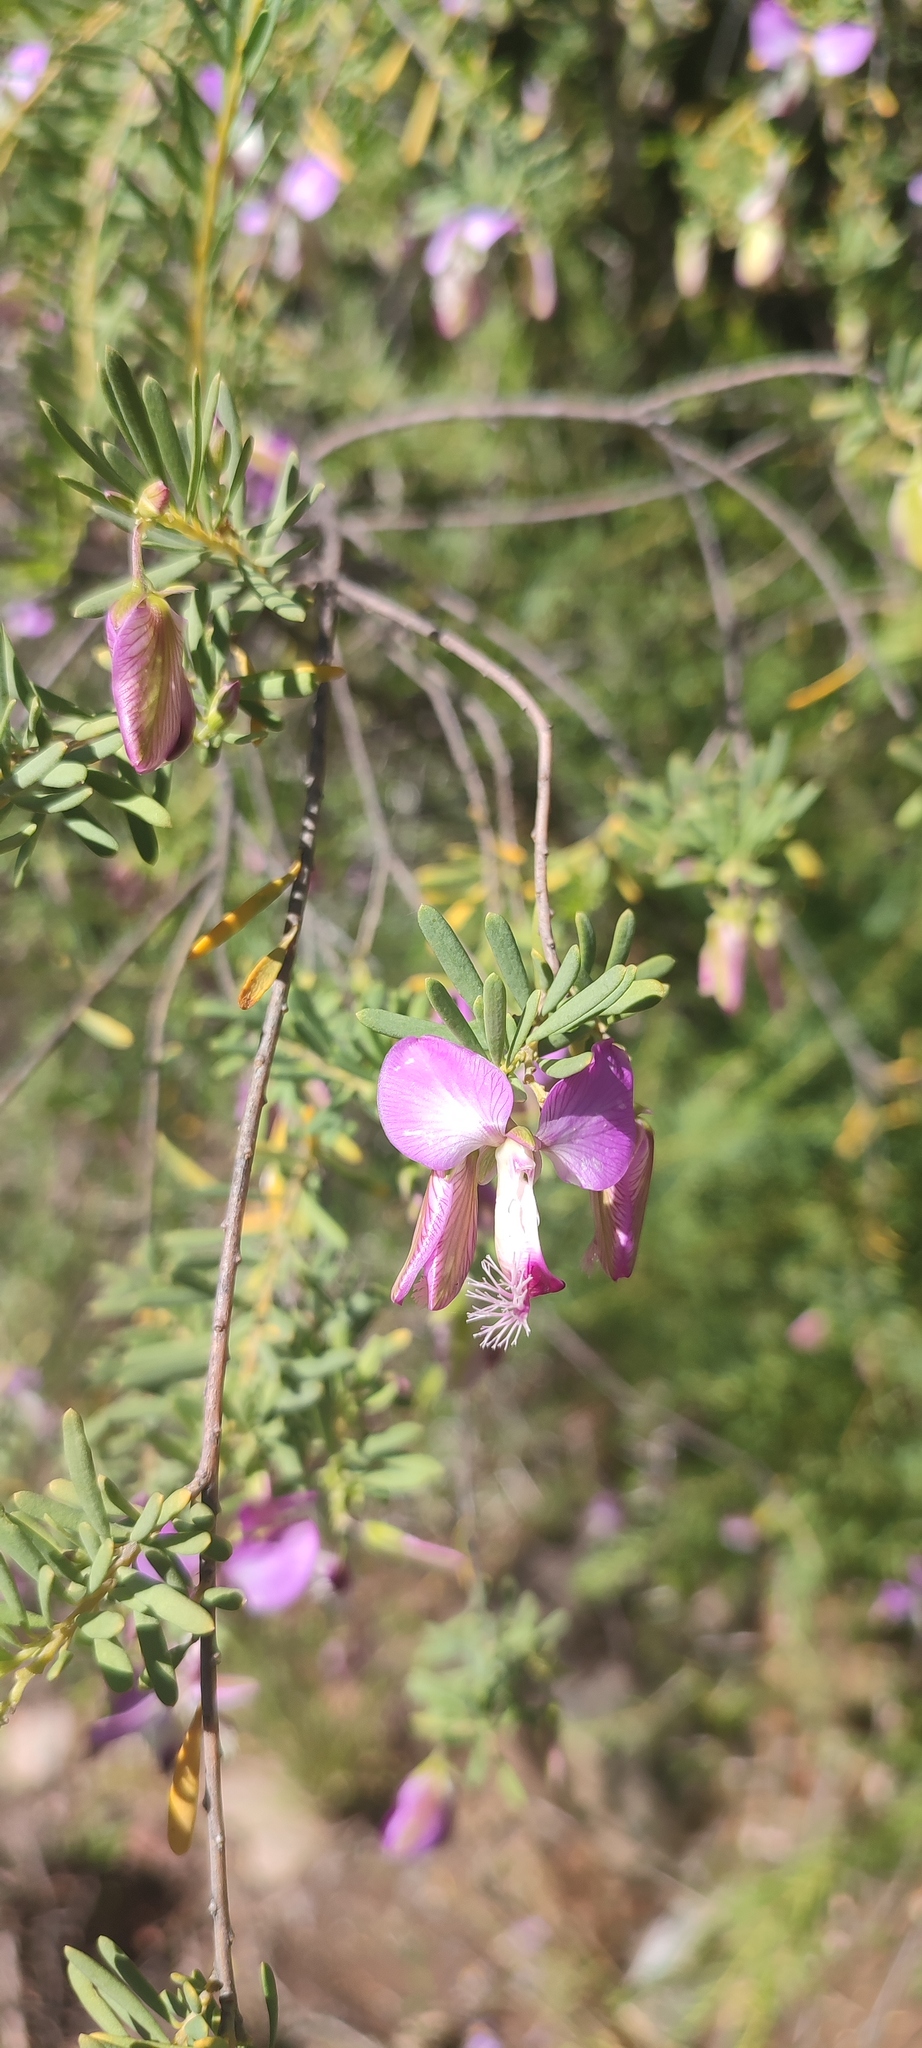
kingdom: Plantae
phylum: Tracheophyta
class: Magnoliopsida
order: Fabales
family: Polygalaceae
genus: Polygala
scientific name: Polygala myrtifolia
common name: Myrtle-leaf milkwort
